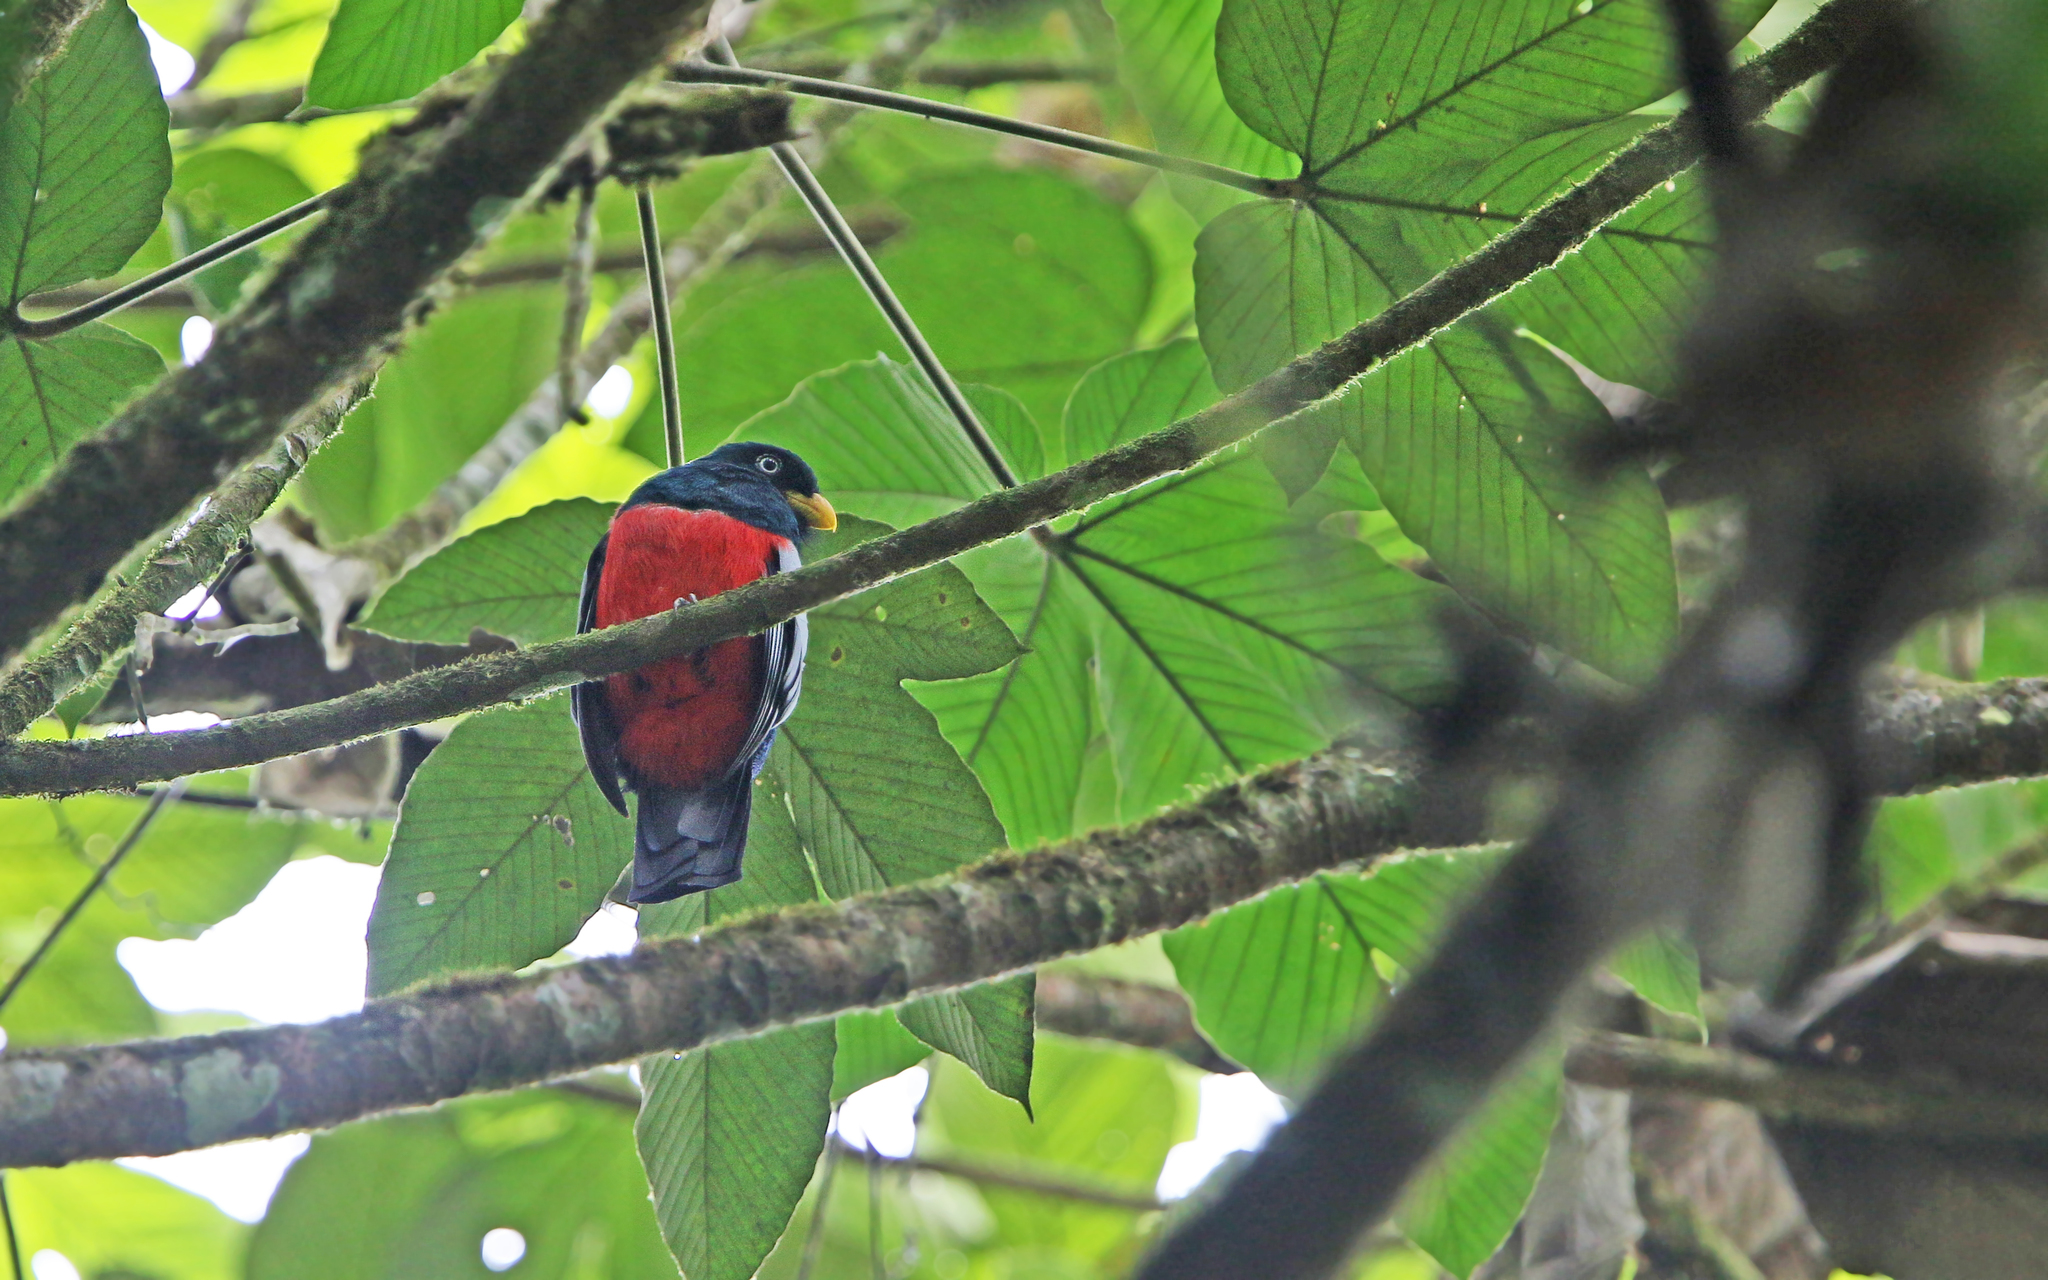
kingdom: Animalia
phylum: Chordata
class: Aves
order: Trogoniformes
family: Trogonidae
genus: Trogon
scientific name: Trogon comptus
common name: Choco trogon
